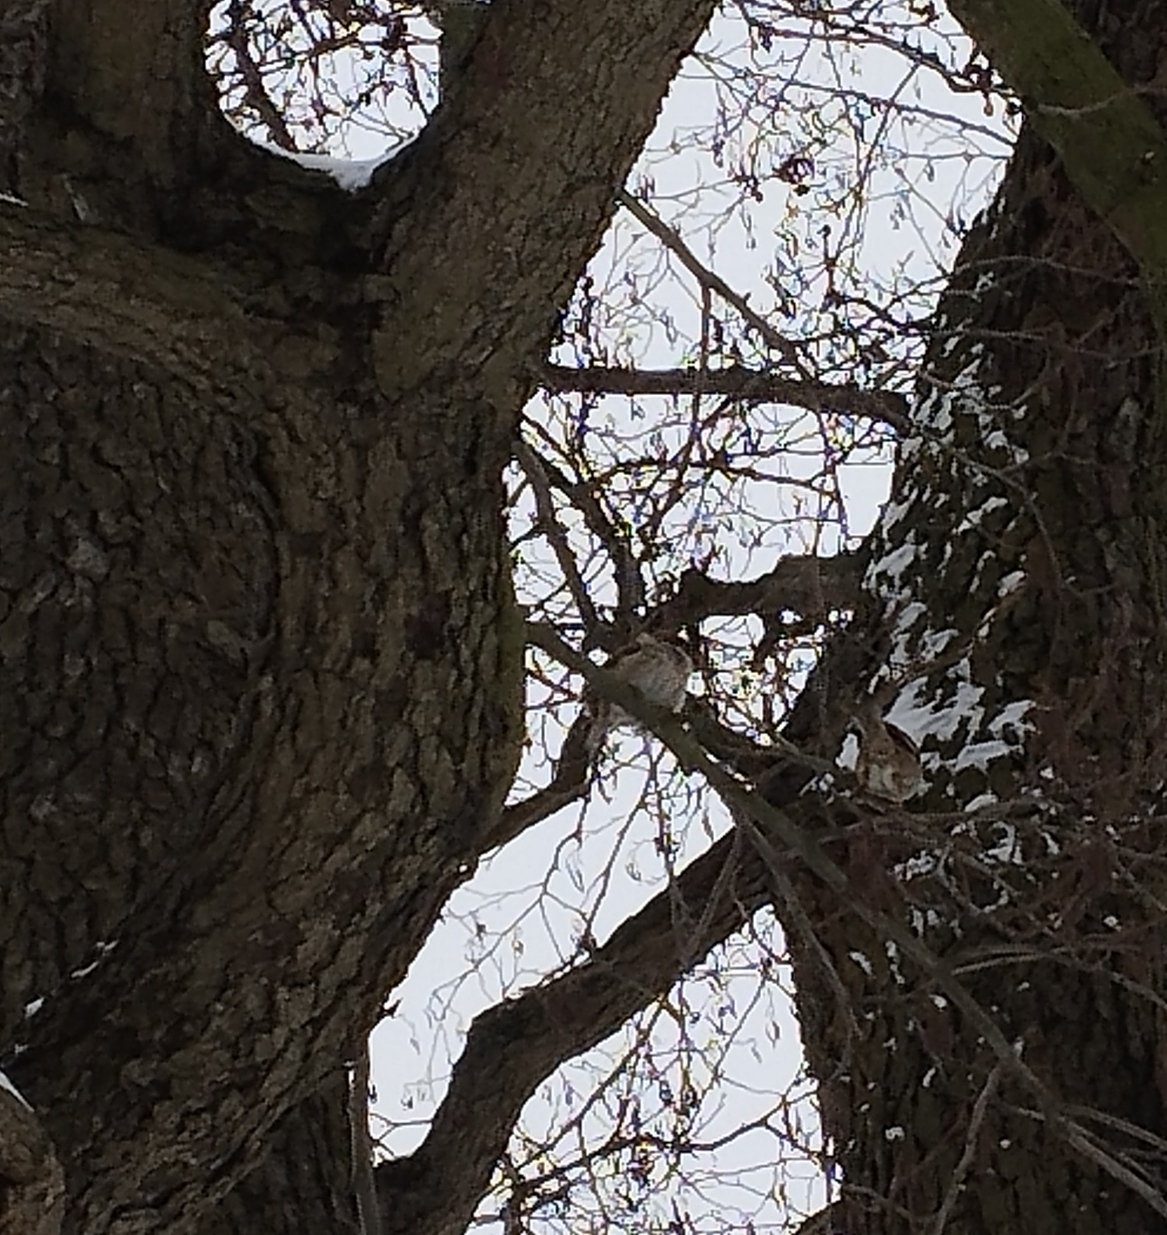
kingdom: Animalia
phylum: Chordata
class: Aves
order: Passeriformes
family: Passeridae
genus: Passer
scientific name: Passer montanus
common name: Eurasian tree sparrow
